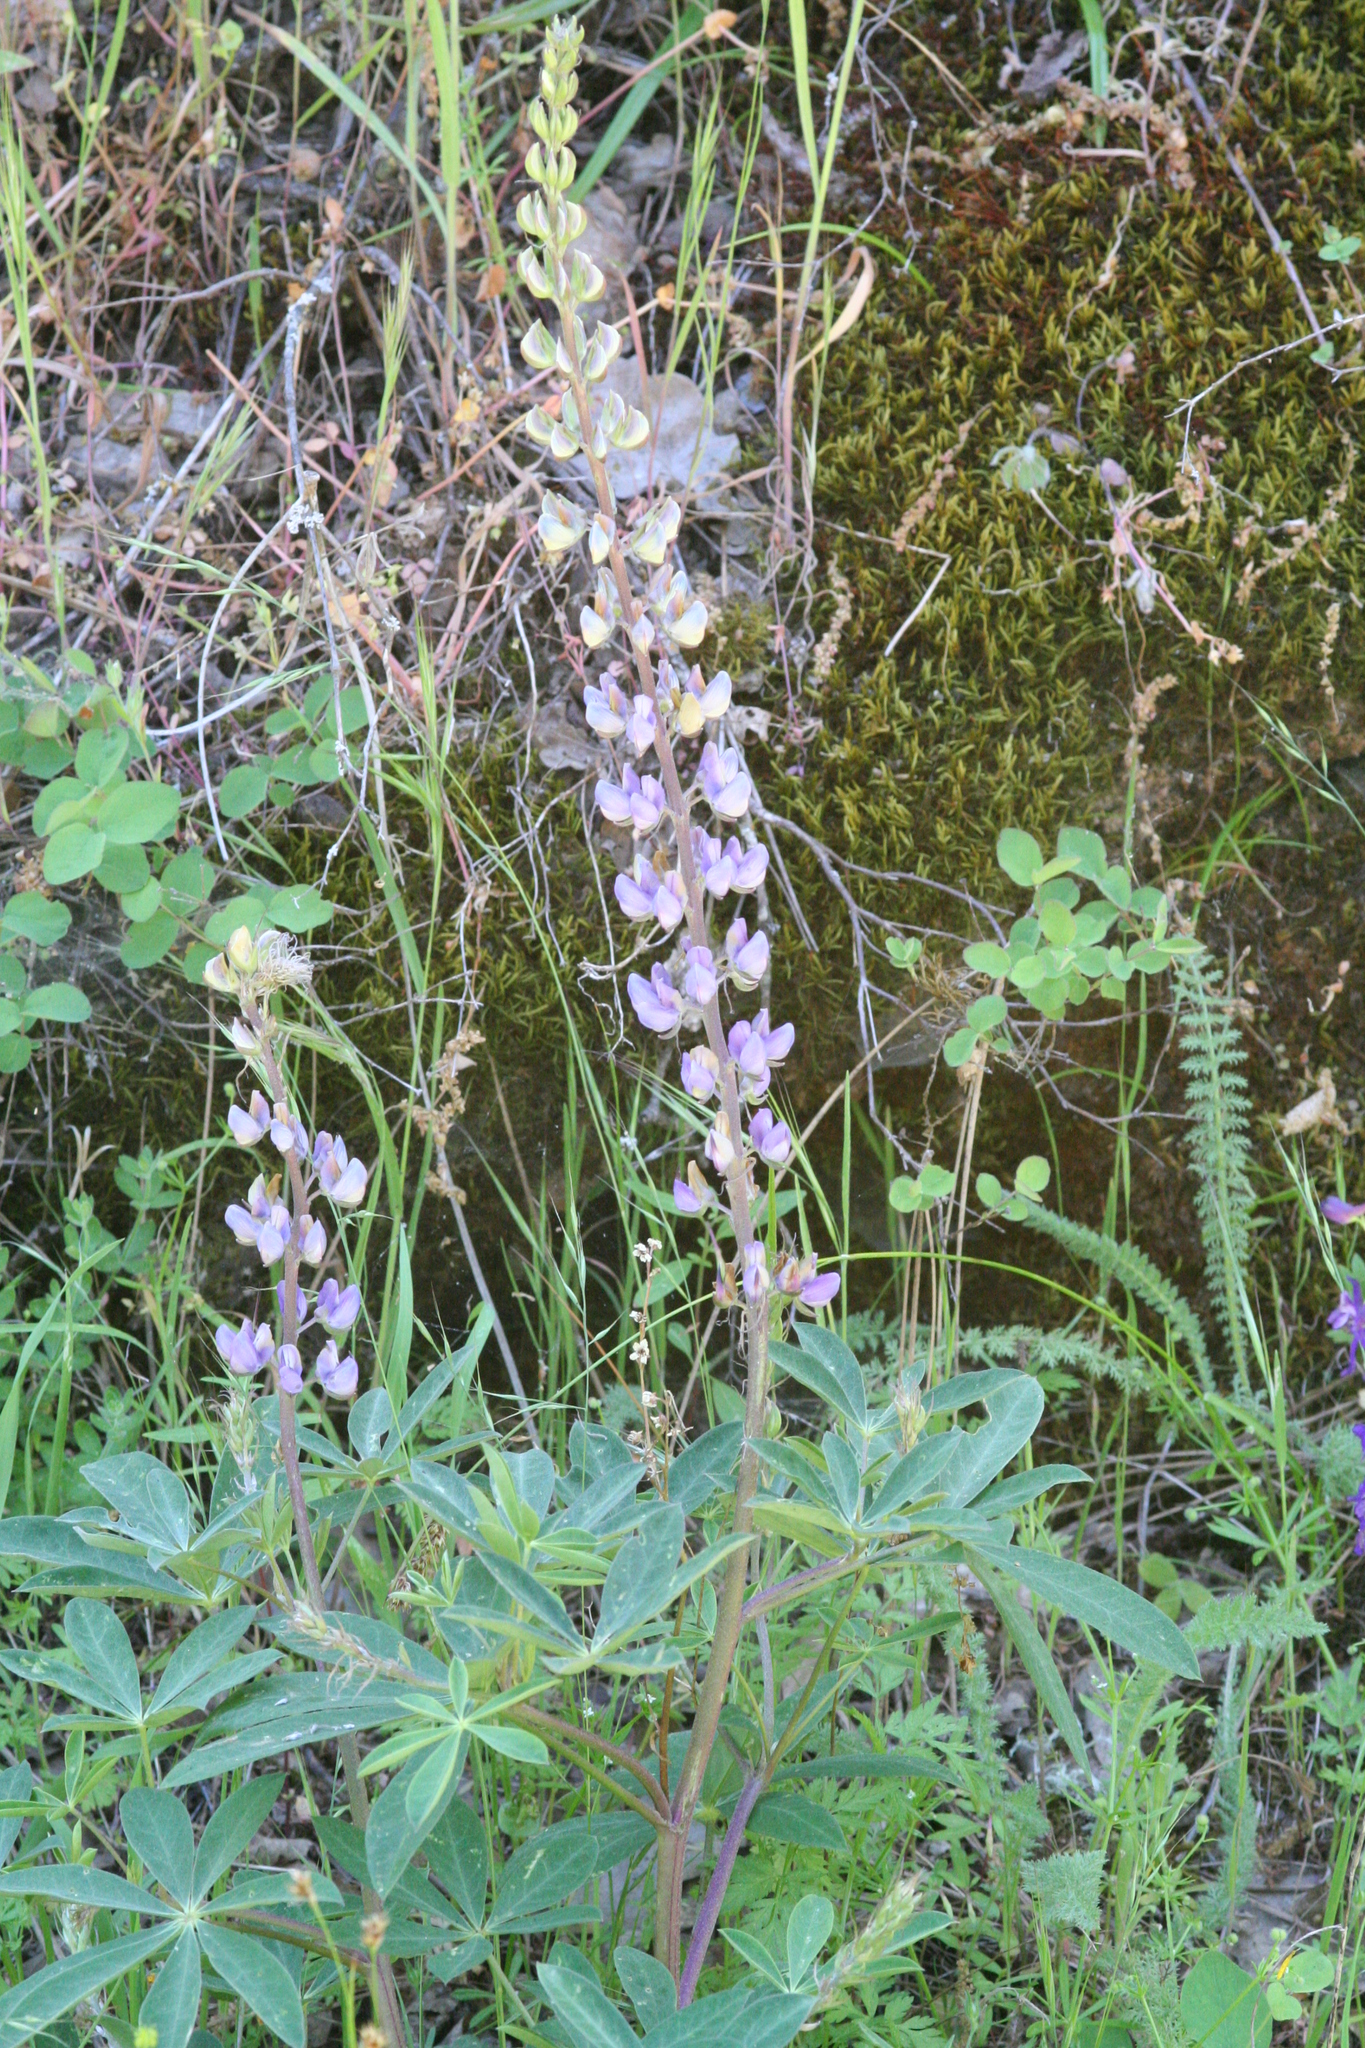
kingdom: Plantae
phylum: Tracheophyta
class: Magnoliopsida
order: Fabales
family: Fabaceae
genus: Lupinus
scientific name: Lupinus latifolius
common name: Broad-leaved lupine
